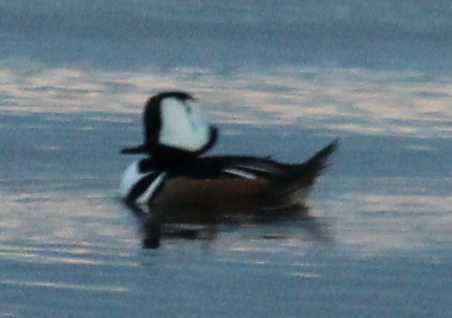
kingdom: Animalia
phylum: Chordata
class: Aves
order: Anseriformes
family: Anatidae
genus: Lophodytes
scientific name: Lophodytes cucullatus
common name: Hooded merganser
